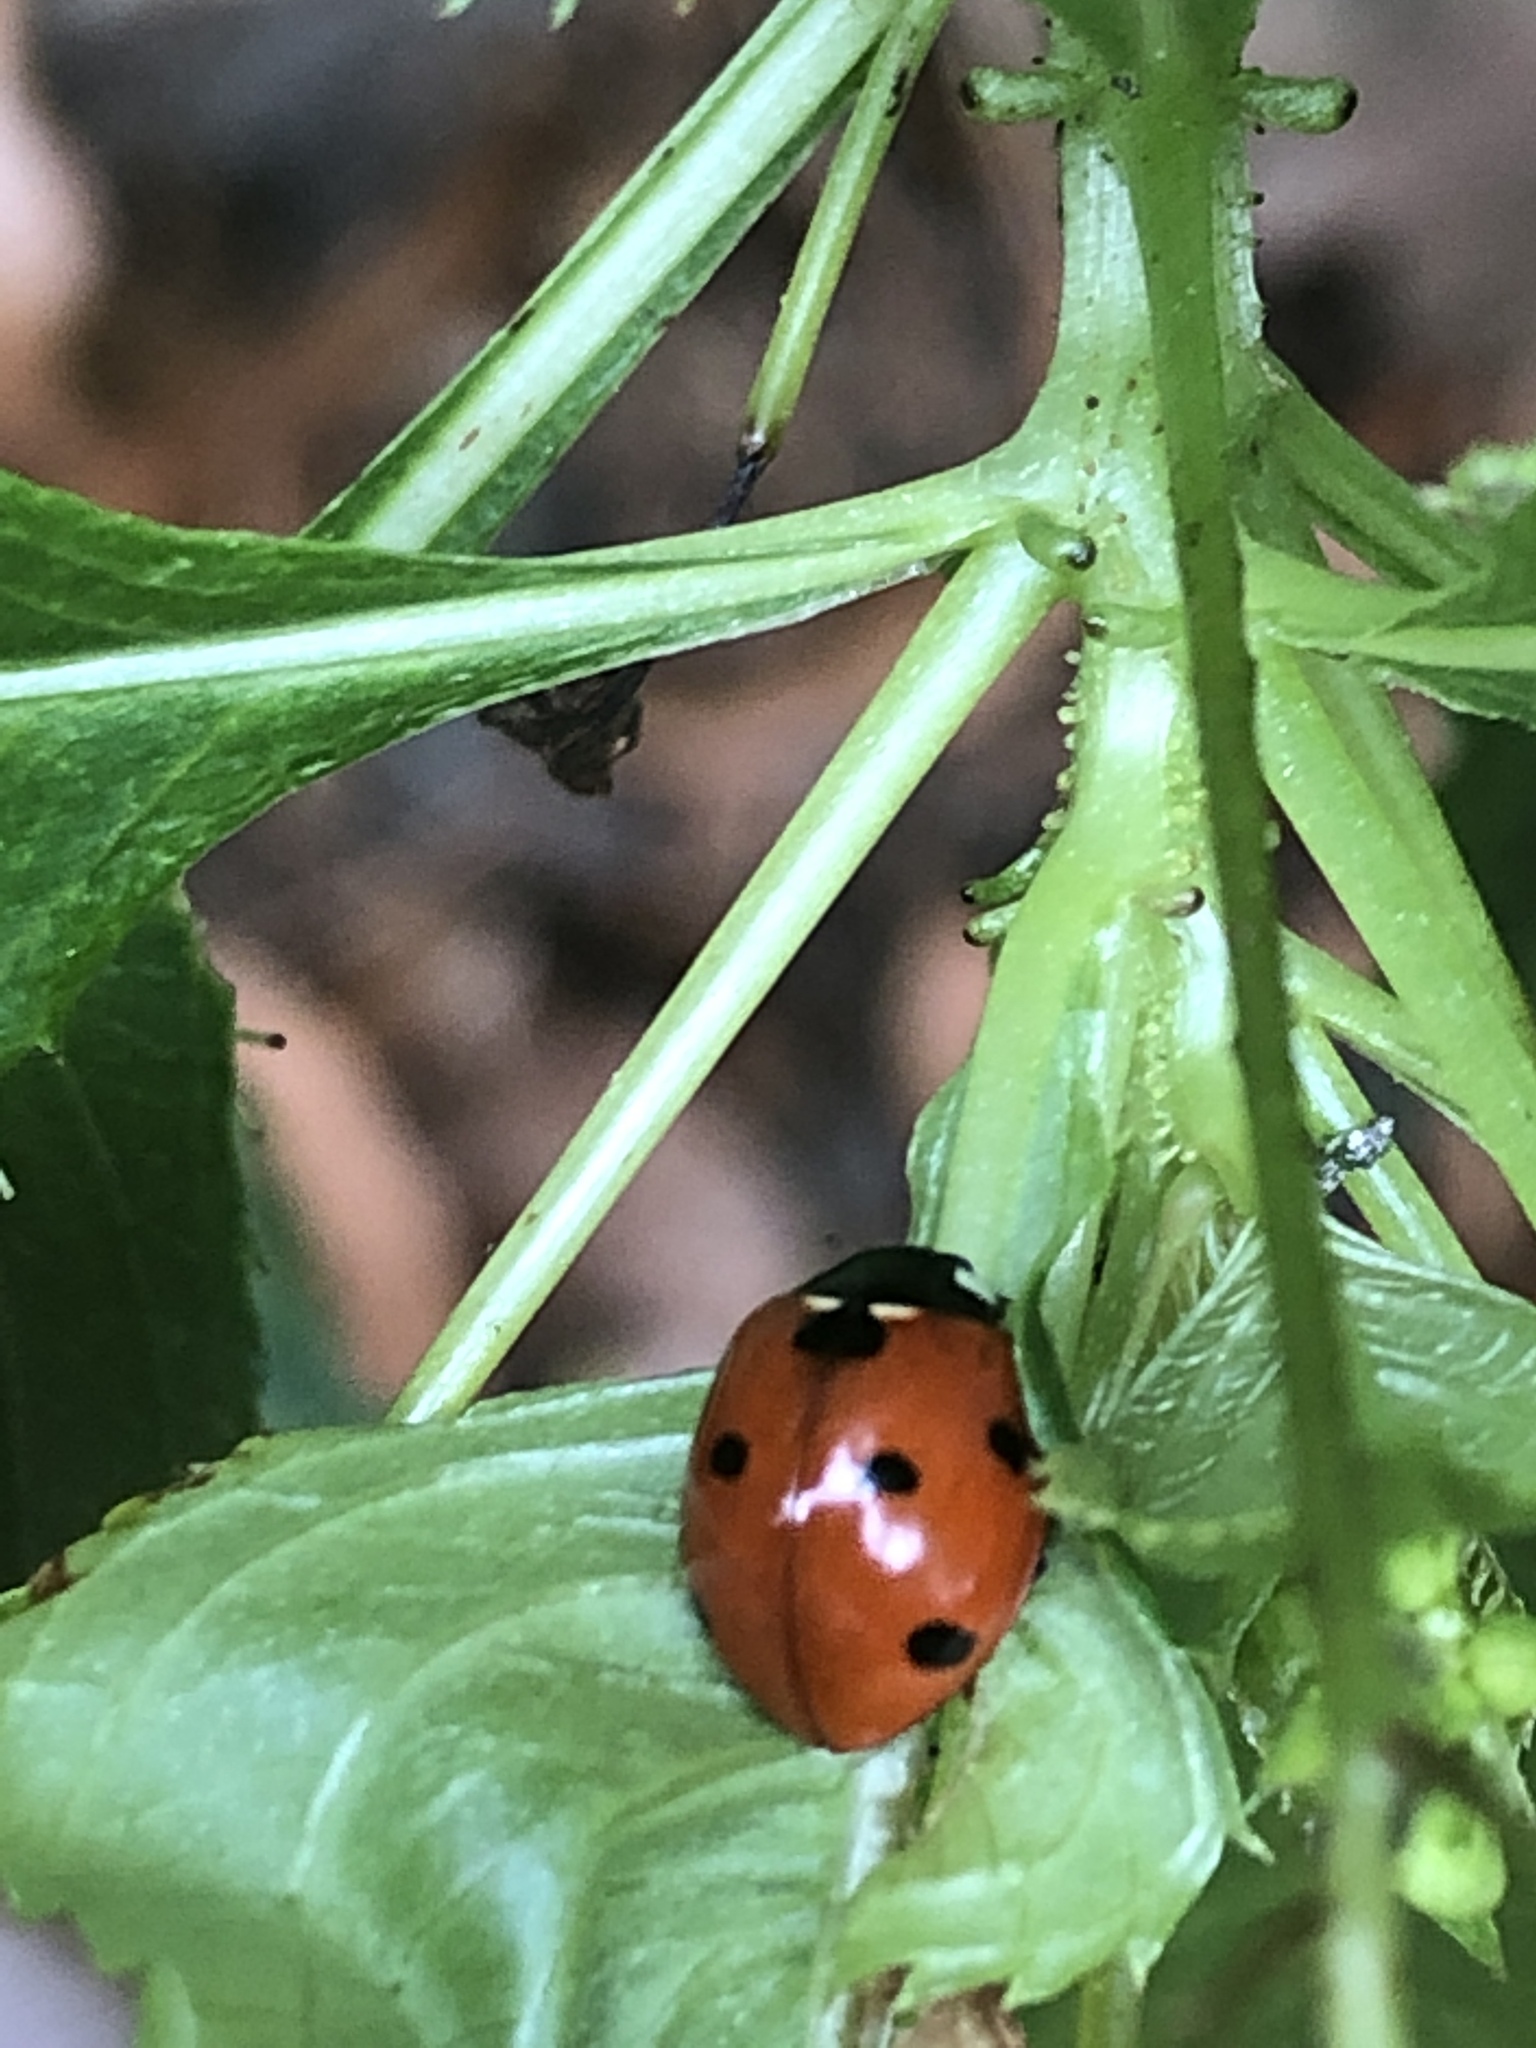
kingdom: Animalia
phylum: Arthropoda
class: Insecta
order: Coleoptera
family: Coccinellidae
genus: Coccinella
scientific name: Coccinella septempunctata
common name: Sevenspotted lady beetle
